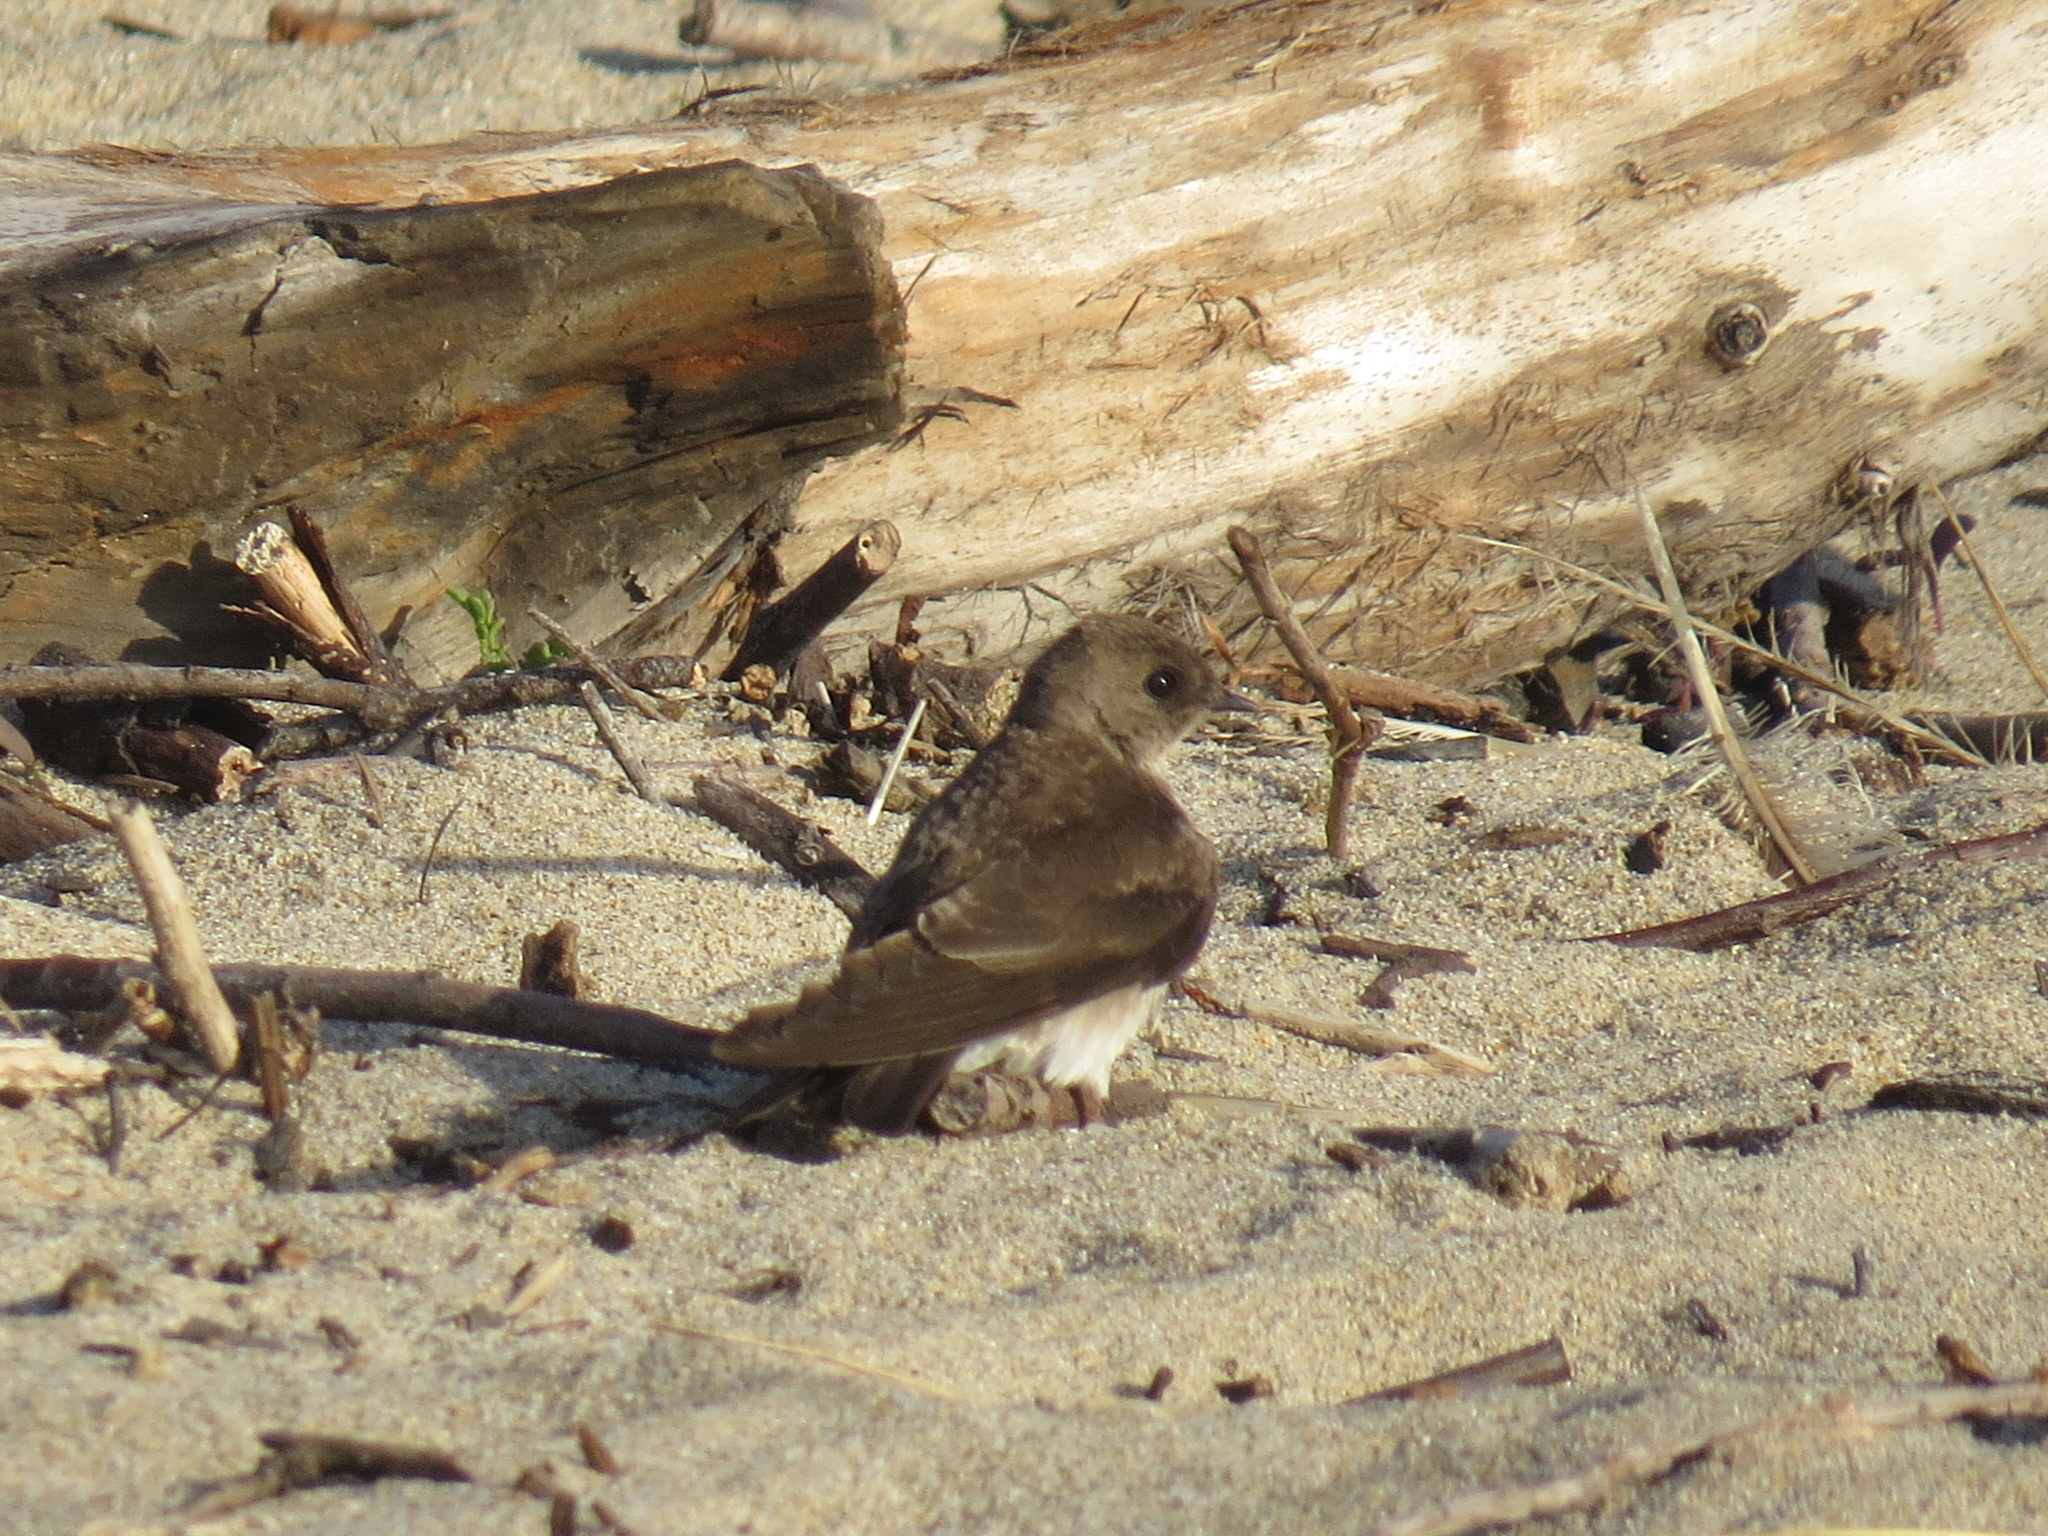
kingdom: Animalia
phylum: Chordata
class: Aves
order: Passeriformes
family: Hirundinidae
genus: Stelgidopteryx
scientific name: Stelgidopteryx serripennis
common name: Northern rough-winged swallow
